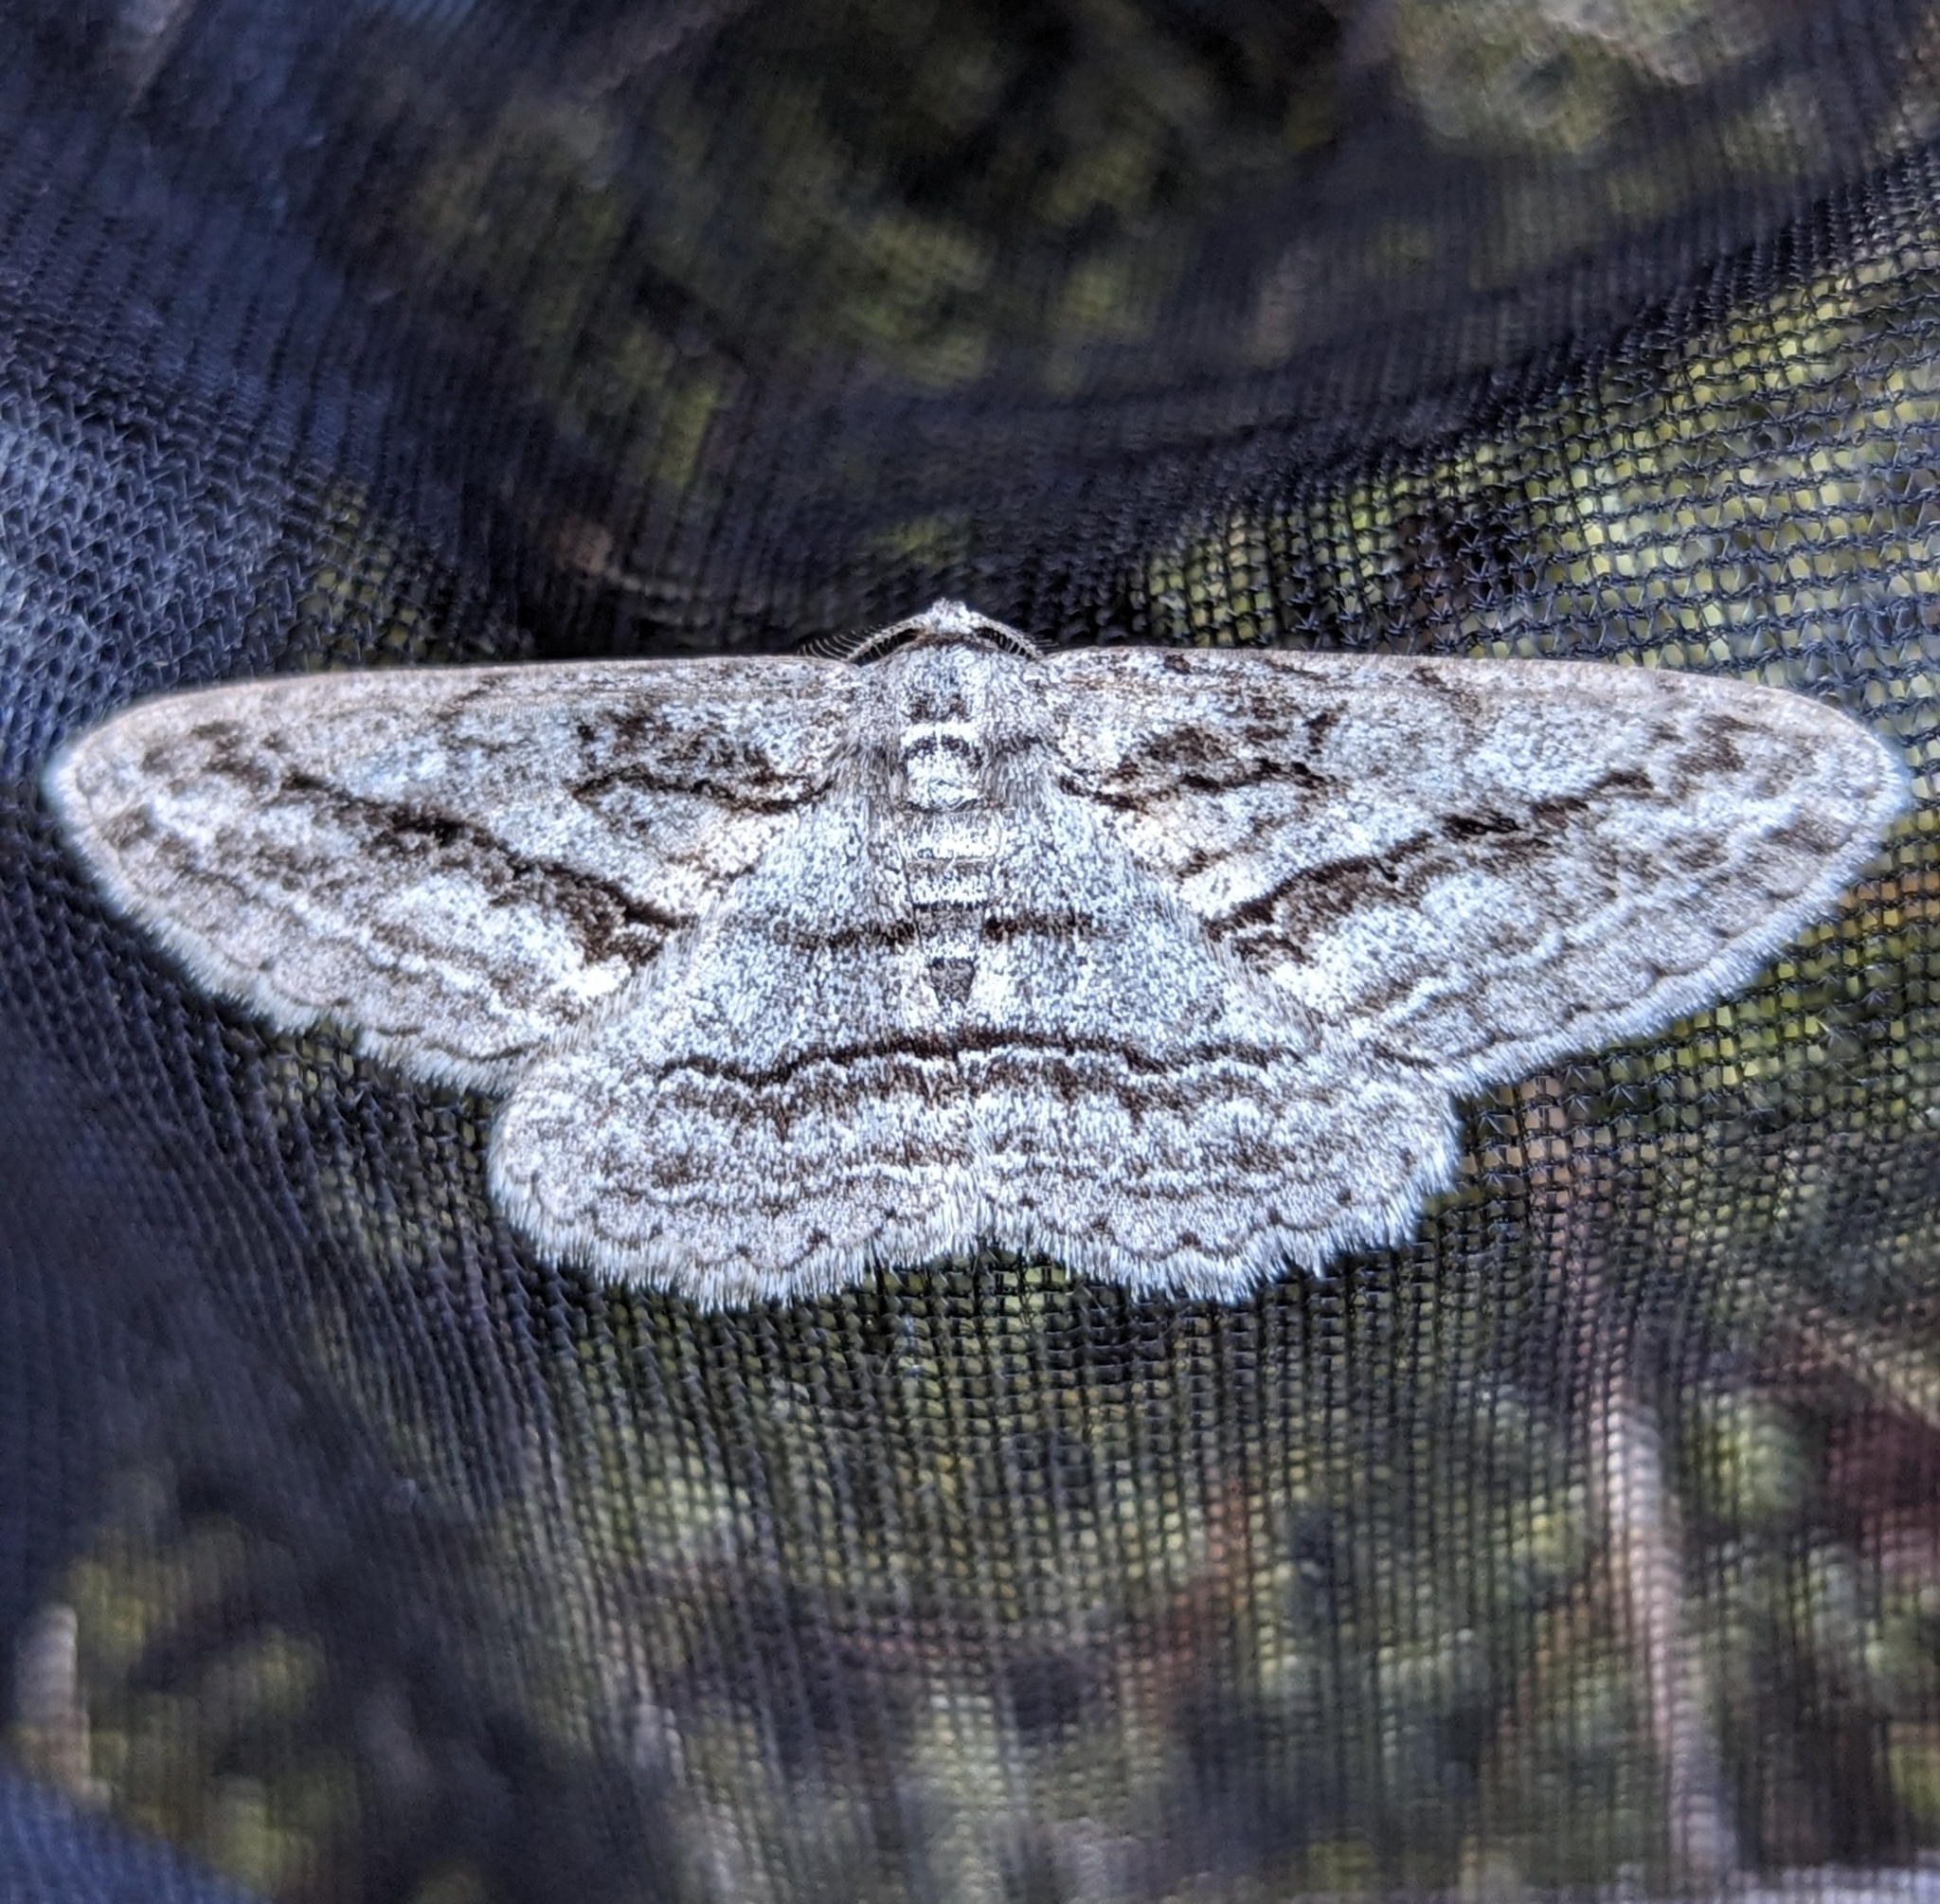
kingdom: Animalia
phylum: Arthropoda
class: Insecta
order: Lepidoptera
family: Geometridae
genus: Stenoporpia
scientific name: Stenoporpia excelsaria
